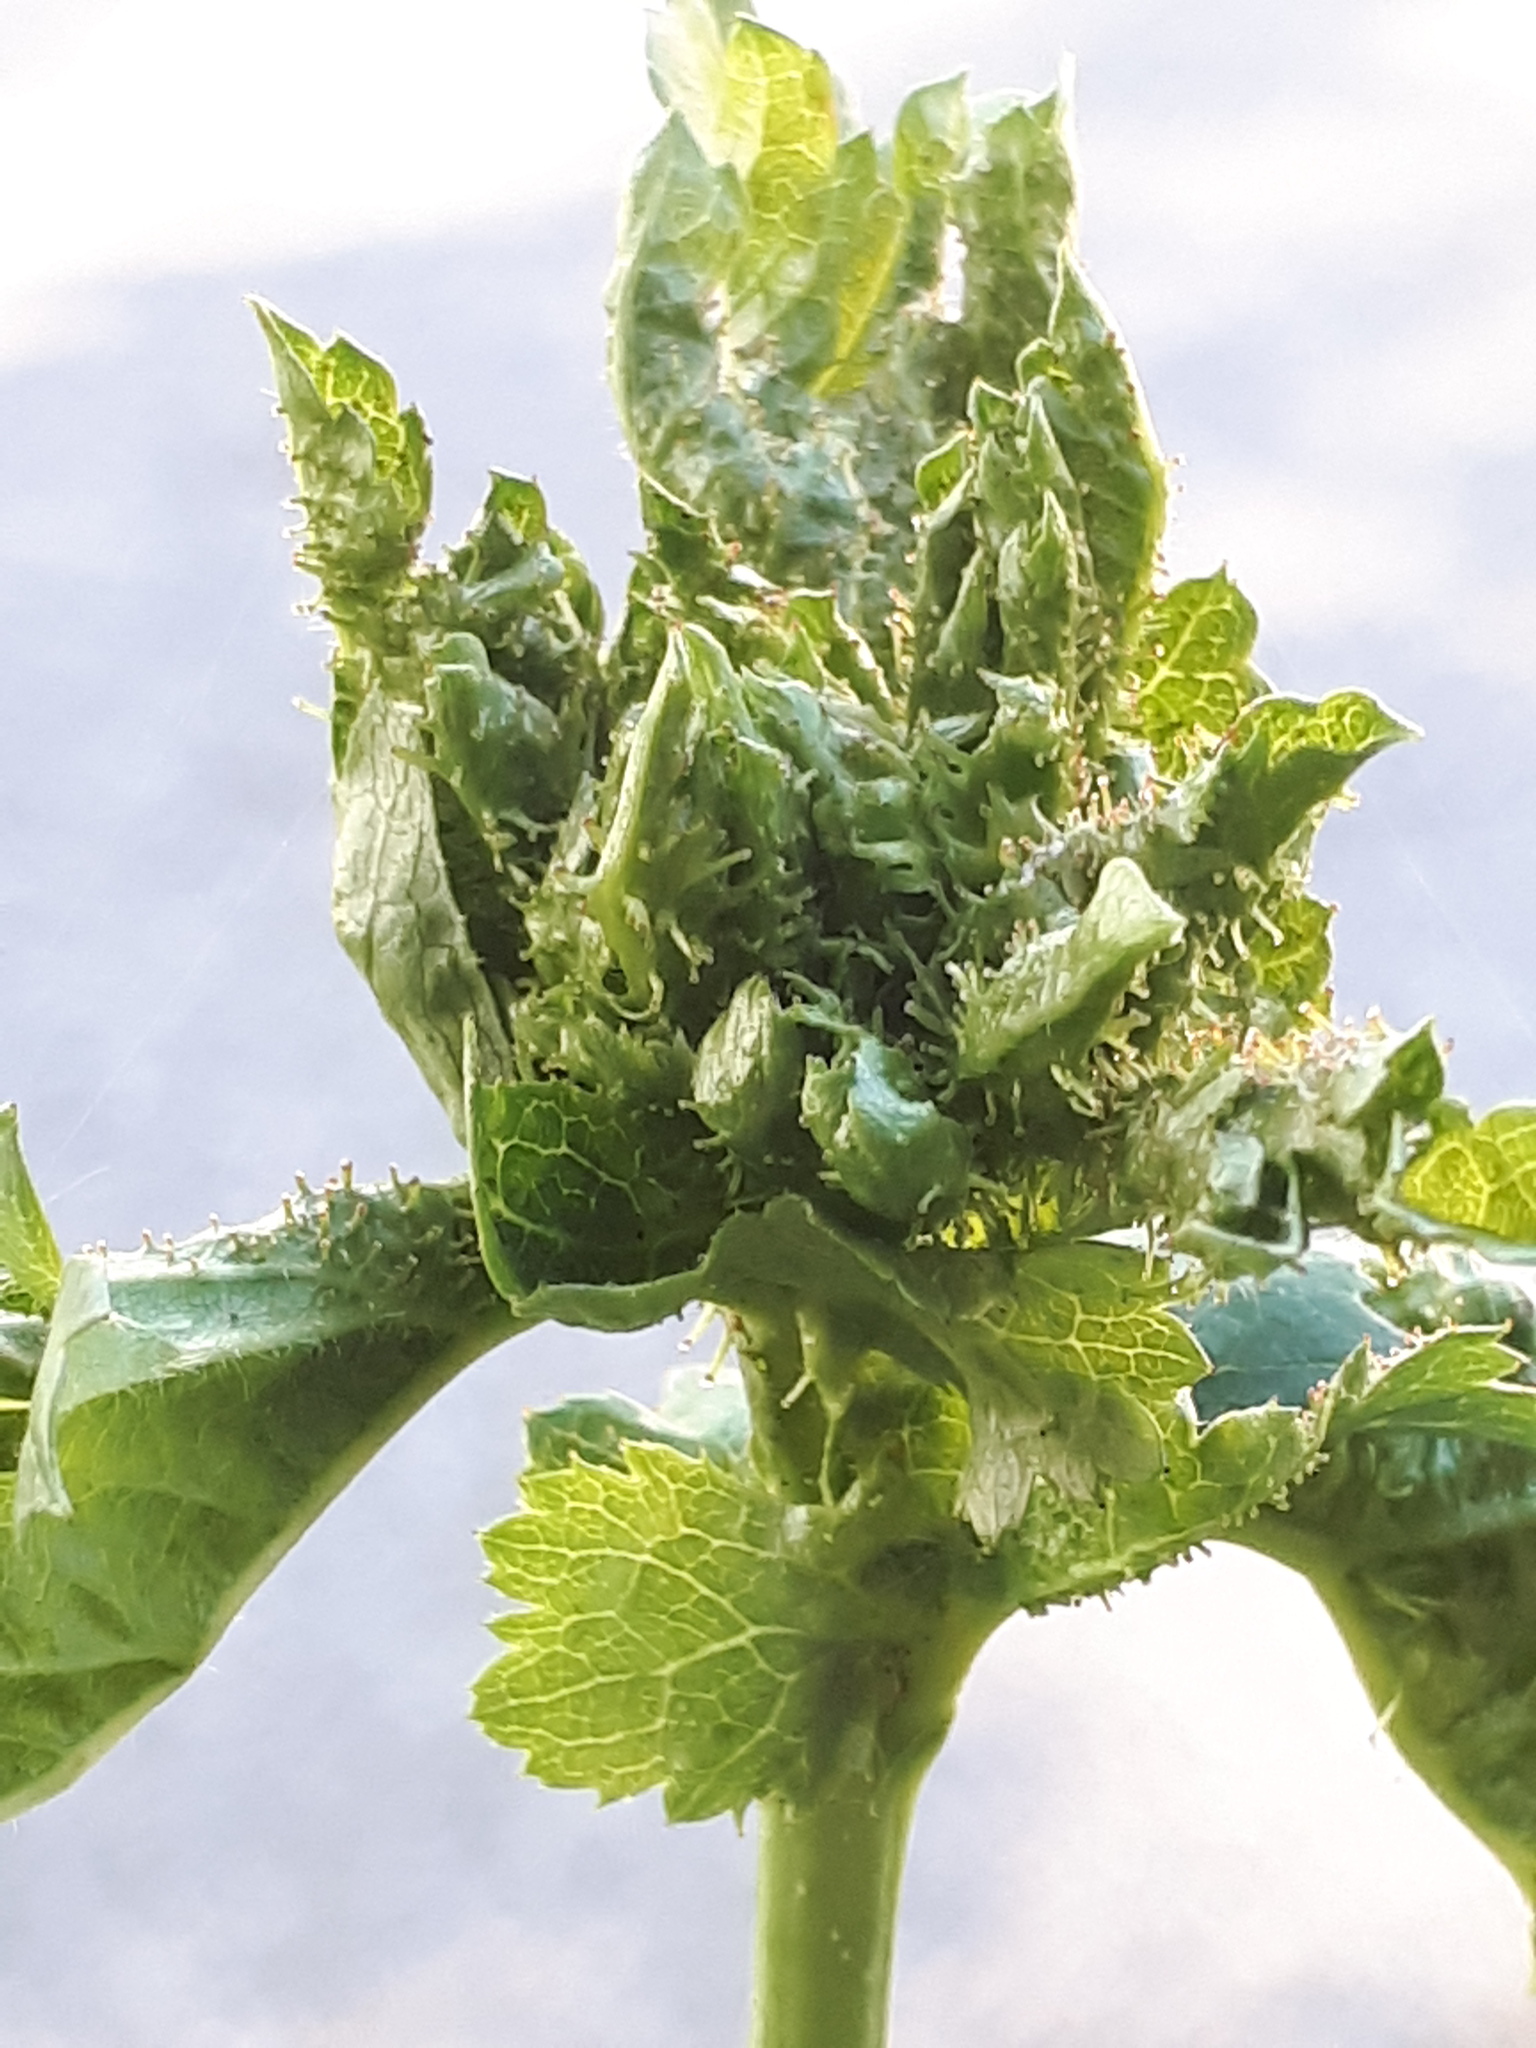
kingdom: Animalia
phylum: Arthropoda
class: Insecta
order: Diptera
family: Cecidomyiidae
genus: Dasineura
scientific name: Dasineura crataegi
